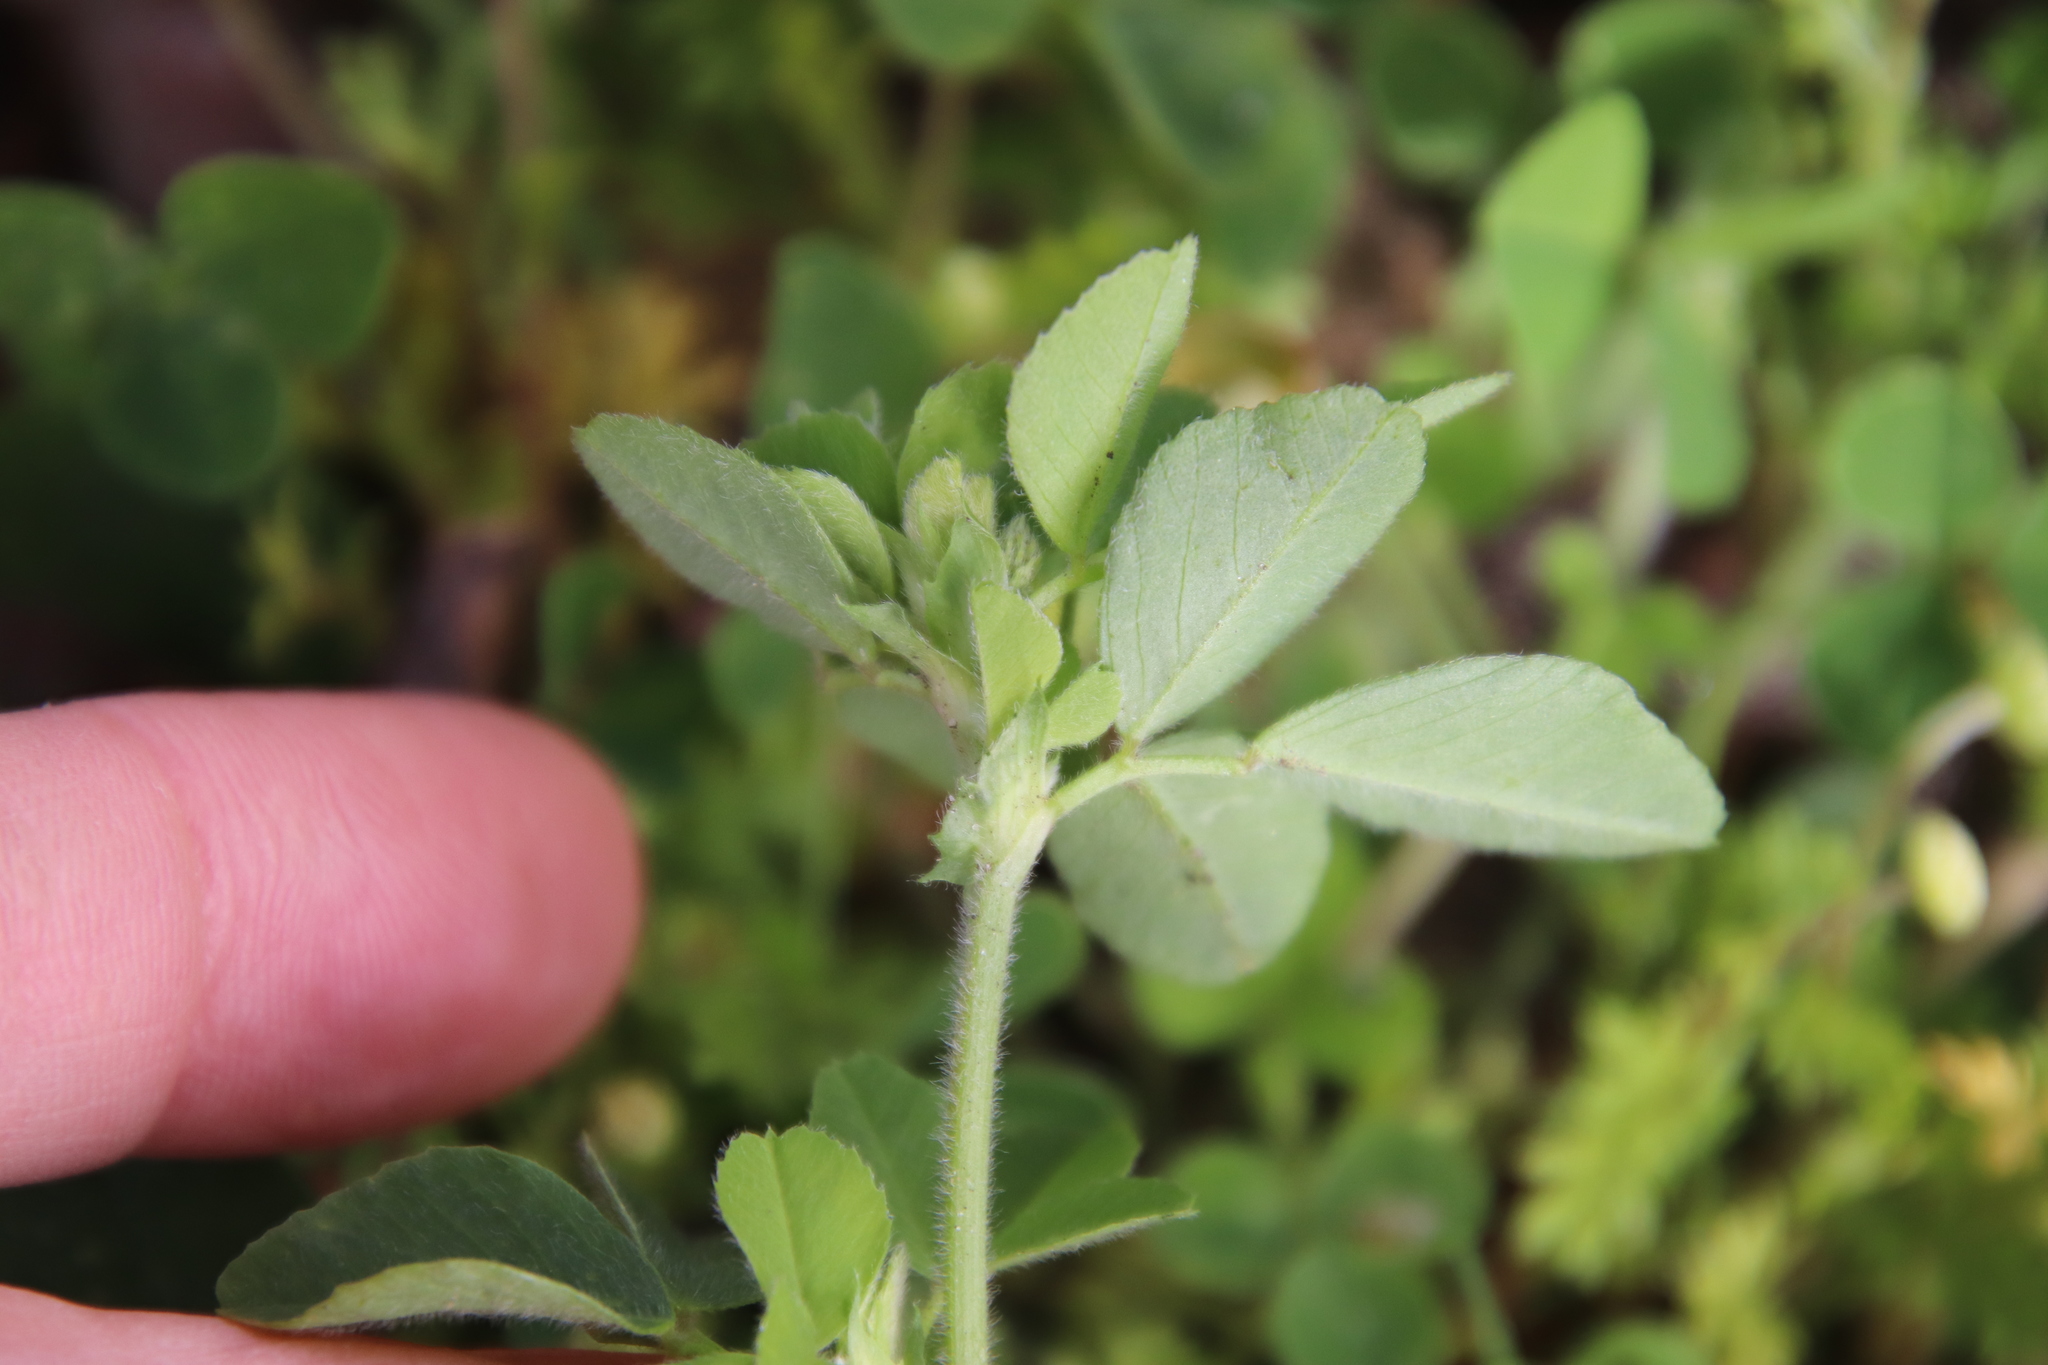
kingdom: Plantae
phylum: Tracheophyta
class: Magnoliopsida
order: Fabales
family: Fabaceae
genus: Medicago
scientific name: Medicago lupulina
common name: Black medick
